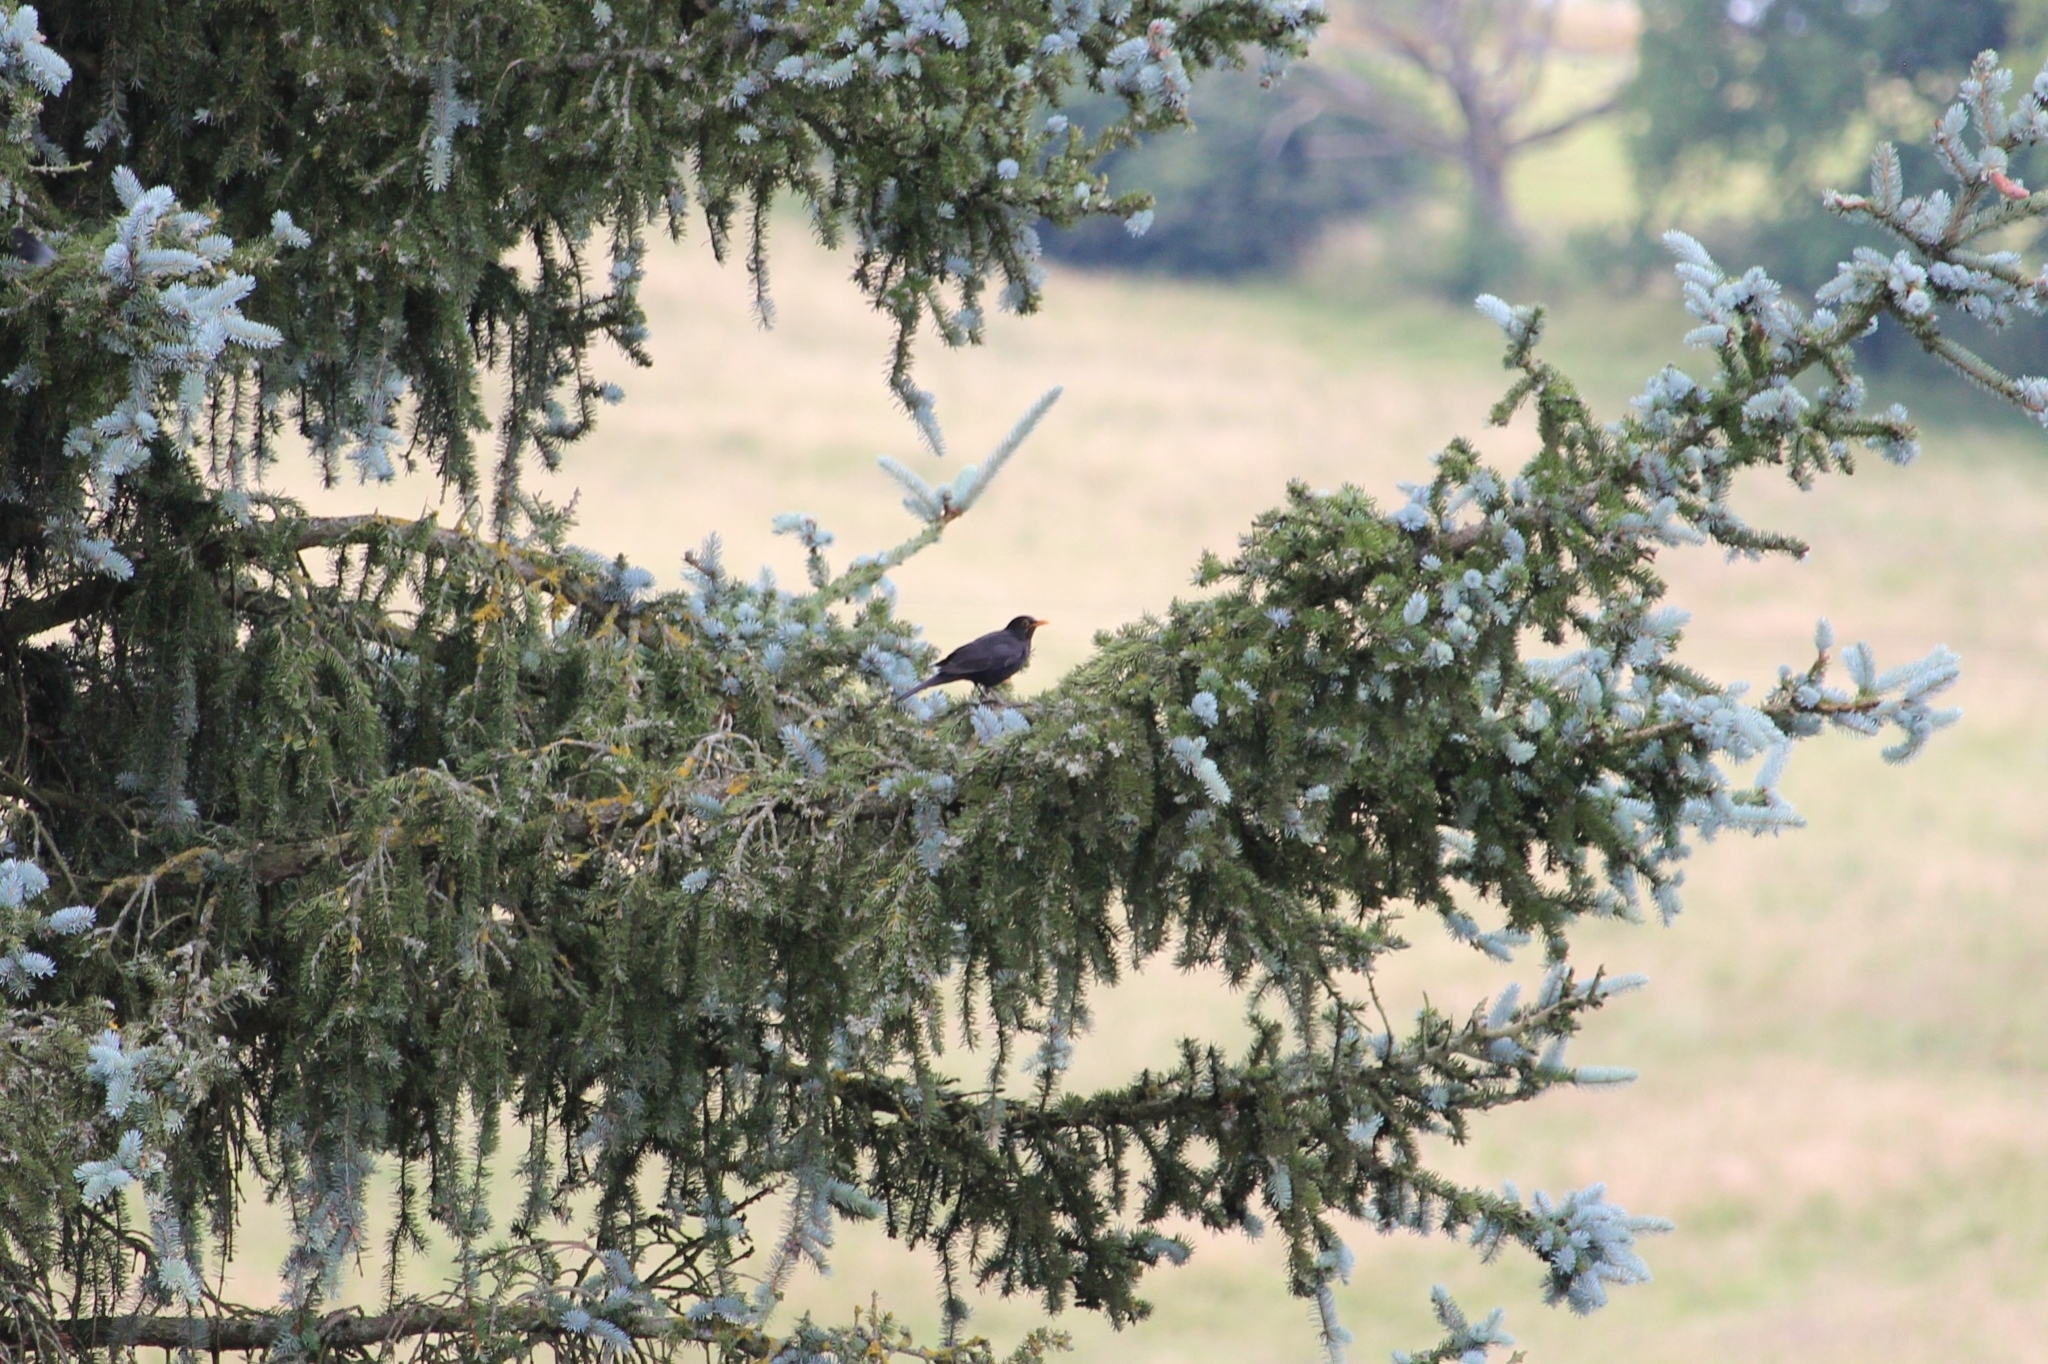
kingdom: Animalia
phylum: Chordata
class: Aves
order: Passeriformes
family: Turdidae
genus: Turdus
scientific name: Turdus merula
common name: Common blackbird
